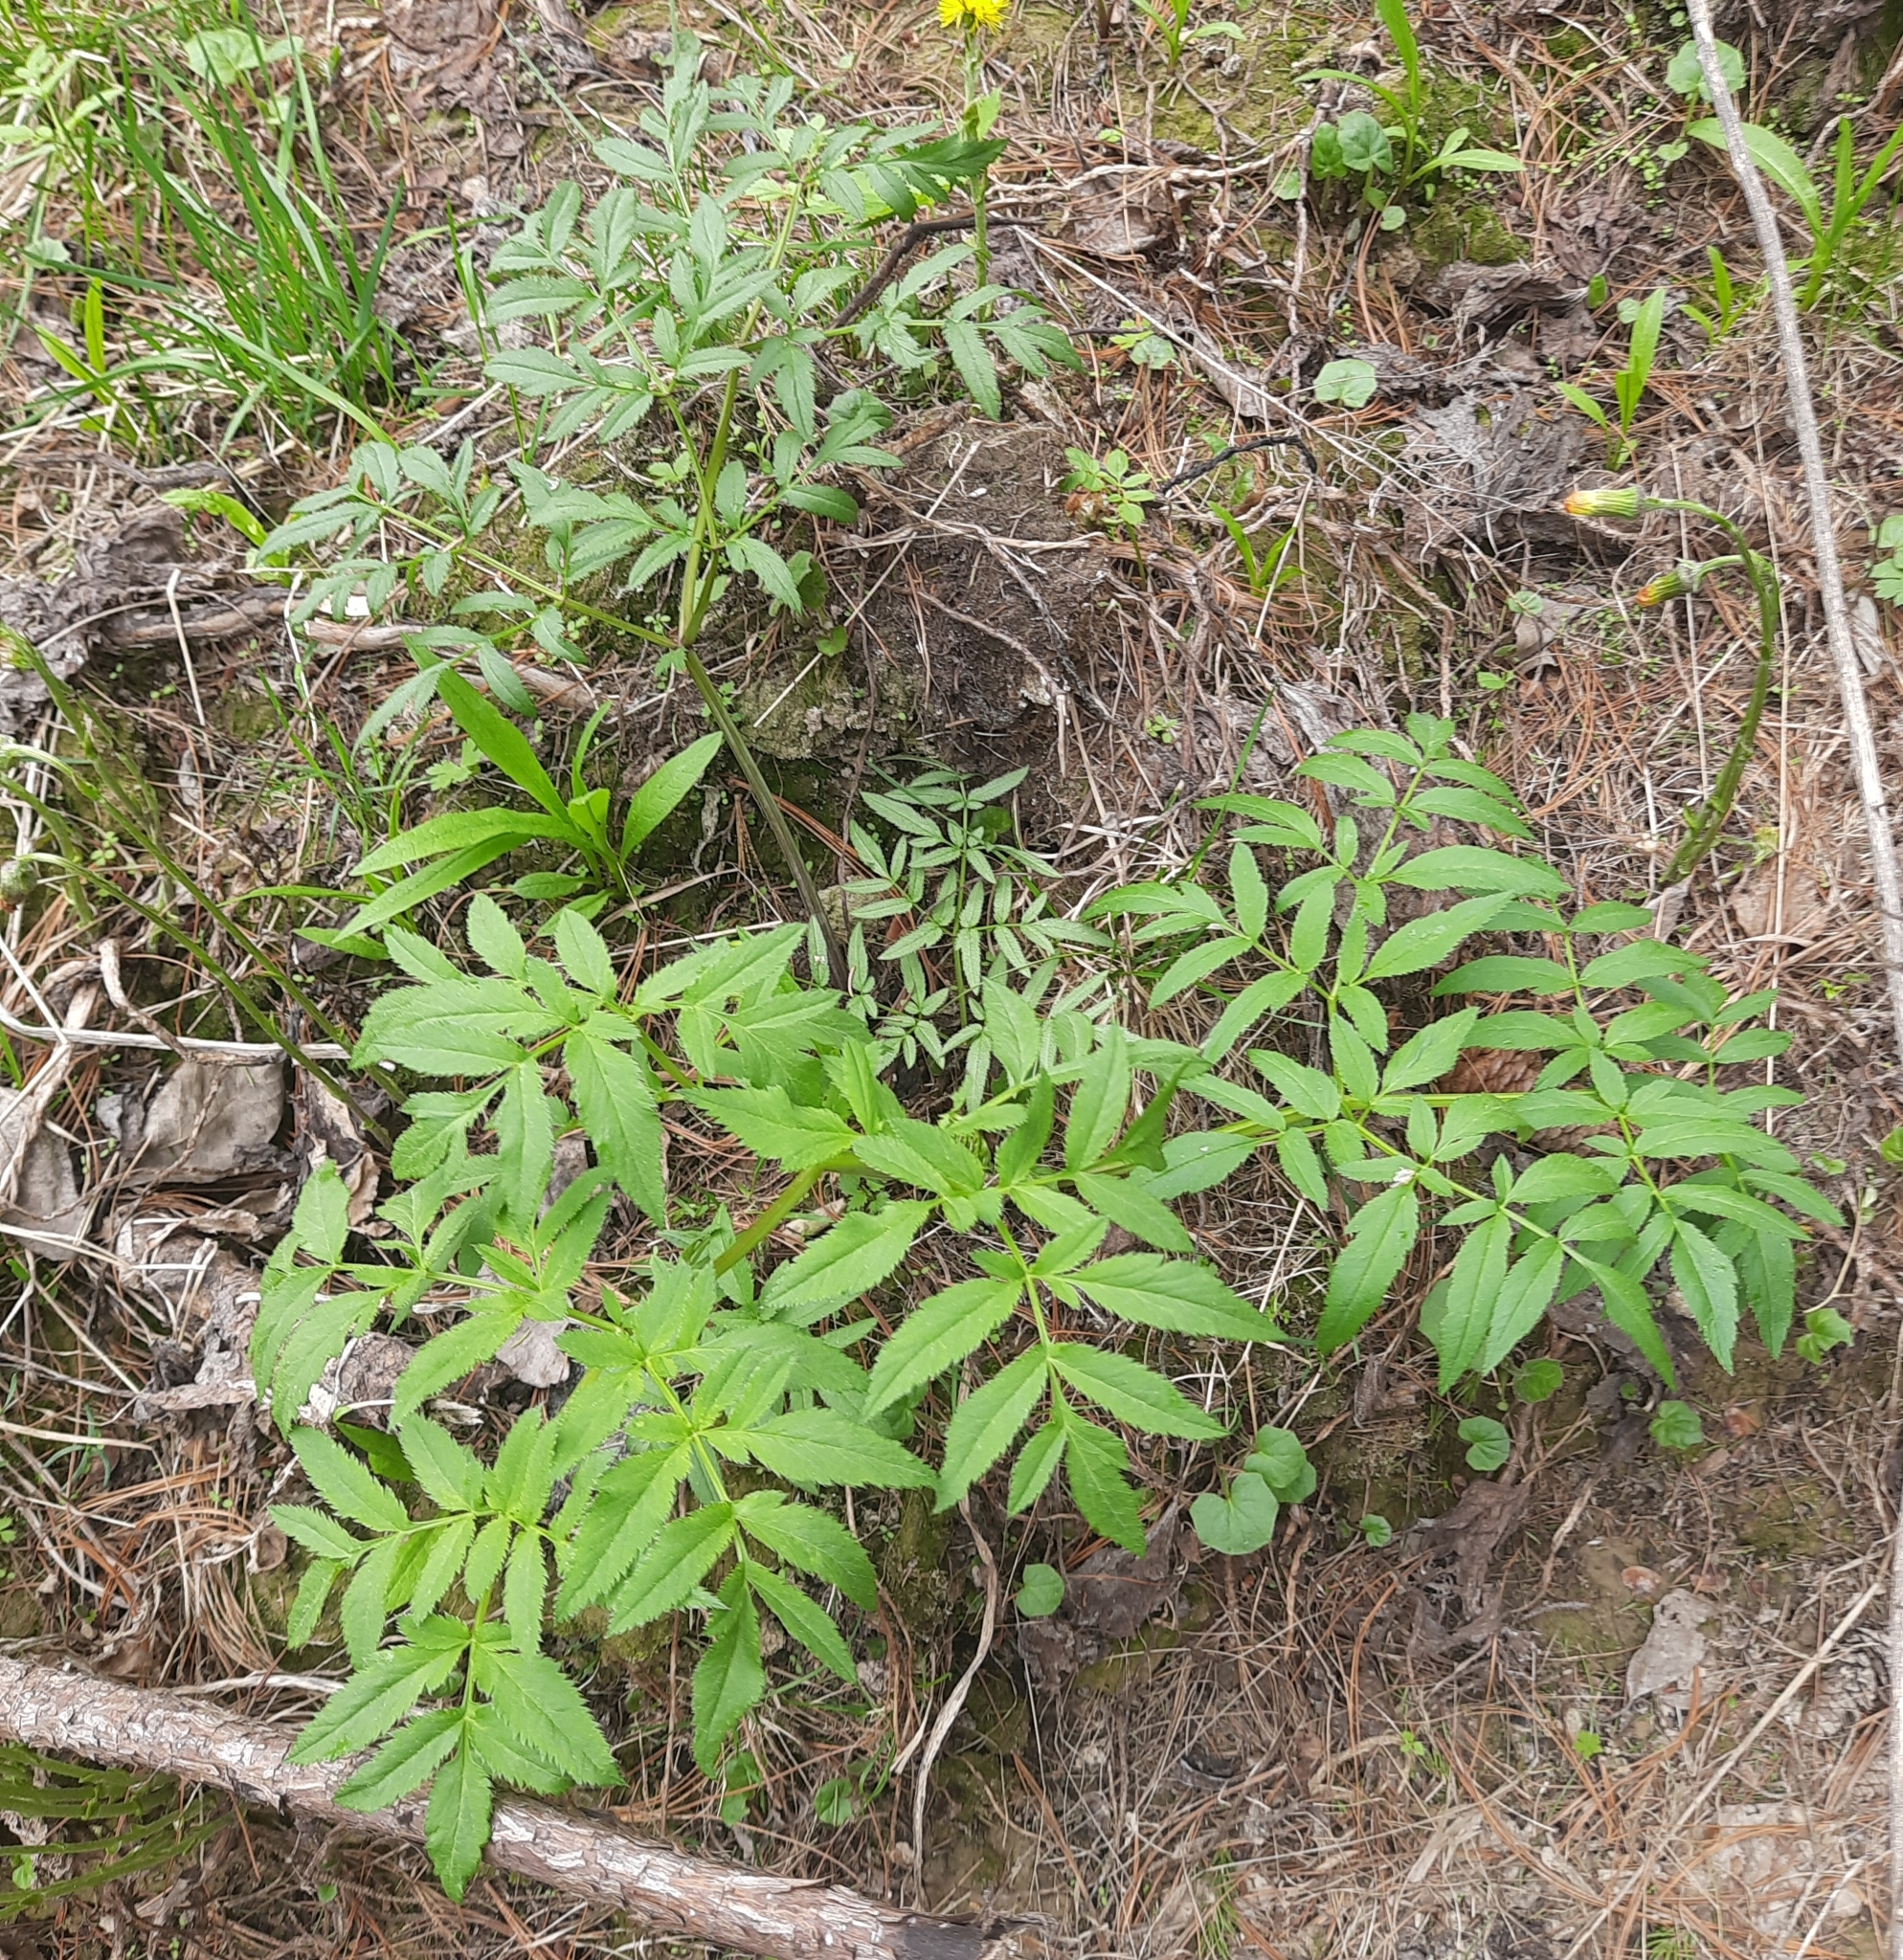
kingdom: Plantae
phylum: Tracheophyta
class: Magnoliopsida
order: Apiales
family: Apiaceae
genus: Angelica
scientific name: Angelica sylvestris
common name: Wild angelica
